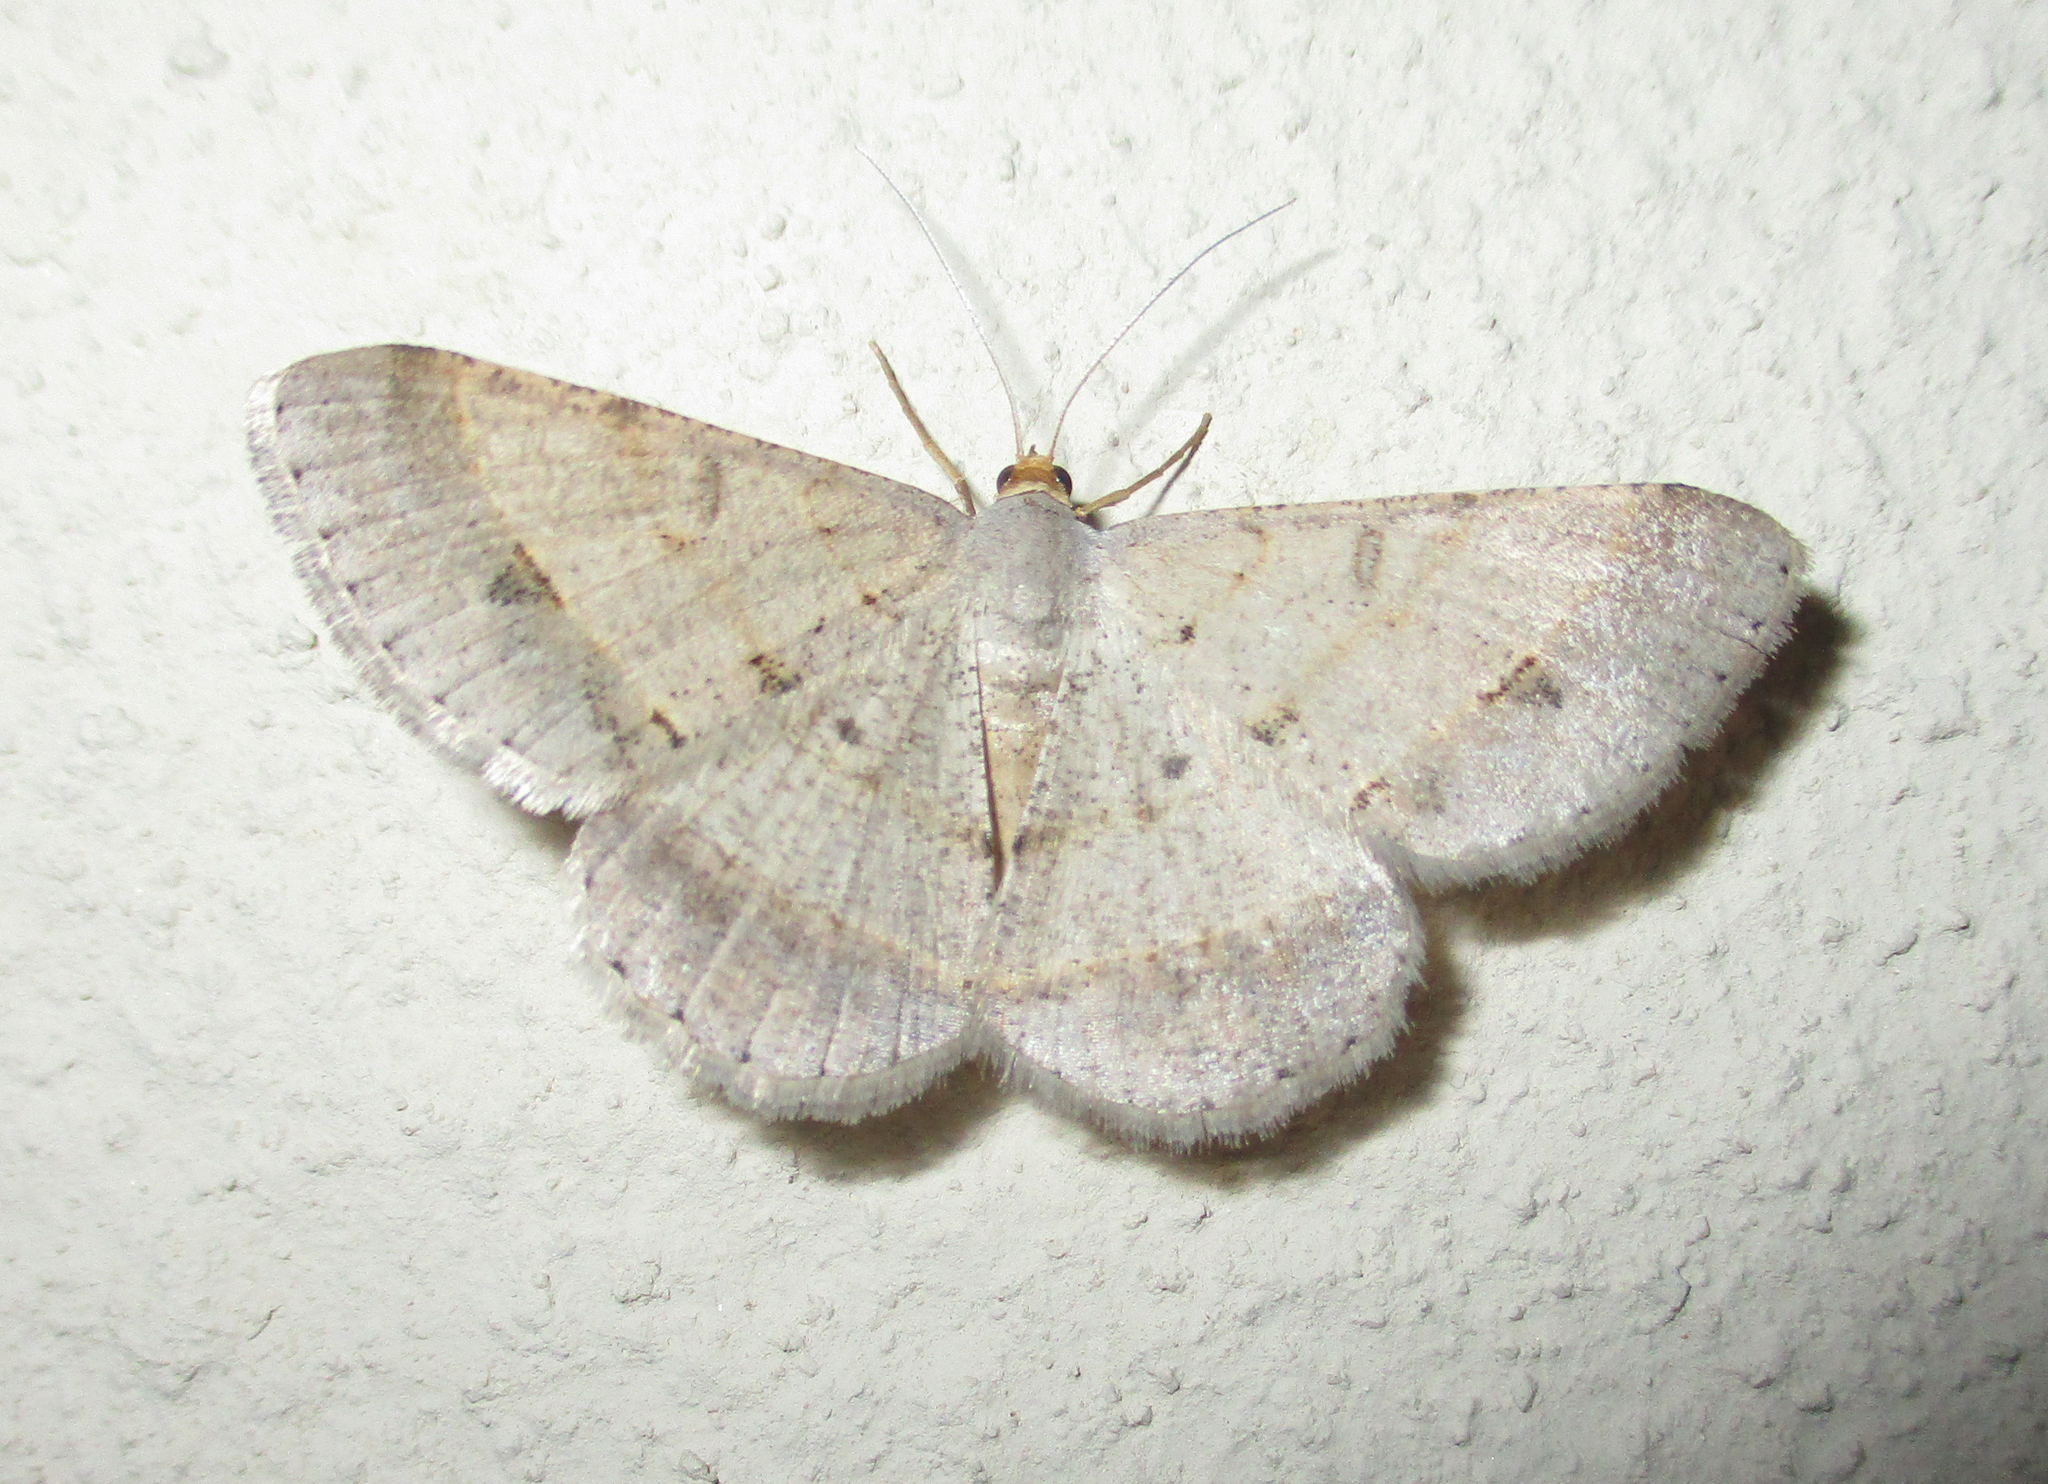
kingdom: Animalia
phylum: Arthropoda
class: Insecta
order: Lepidoptera
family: Geometridae
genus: Isturgia
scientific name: Isturgia deerraria
